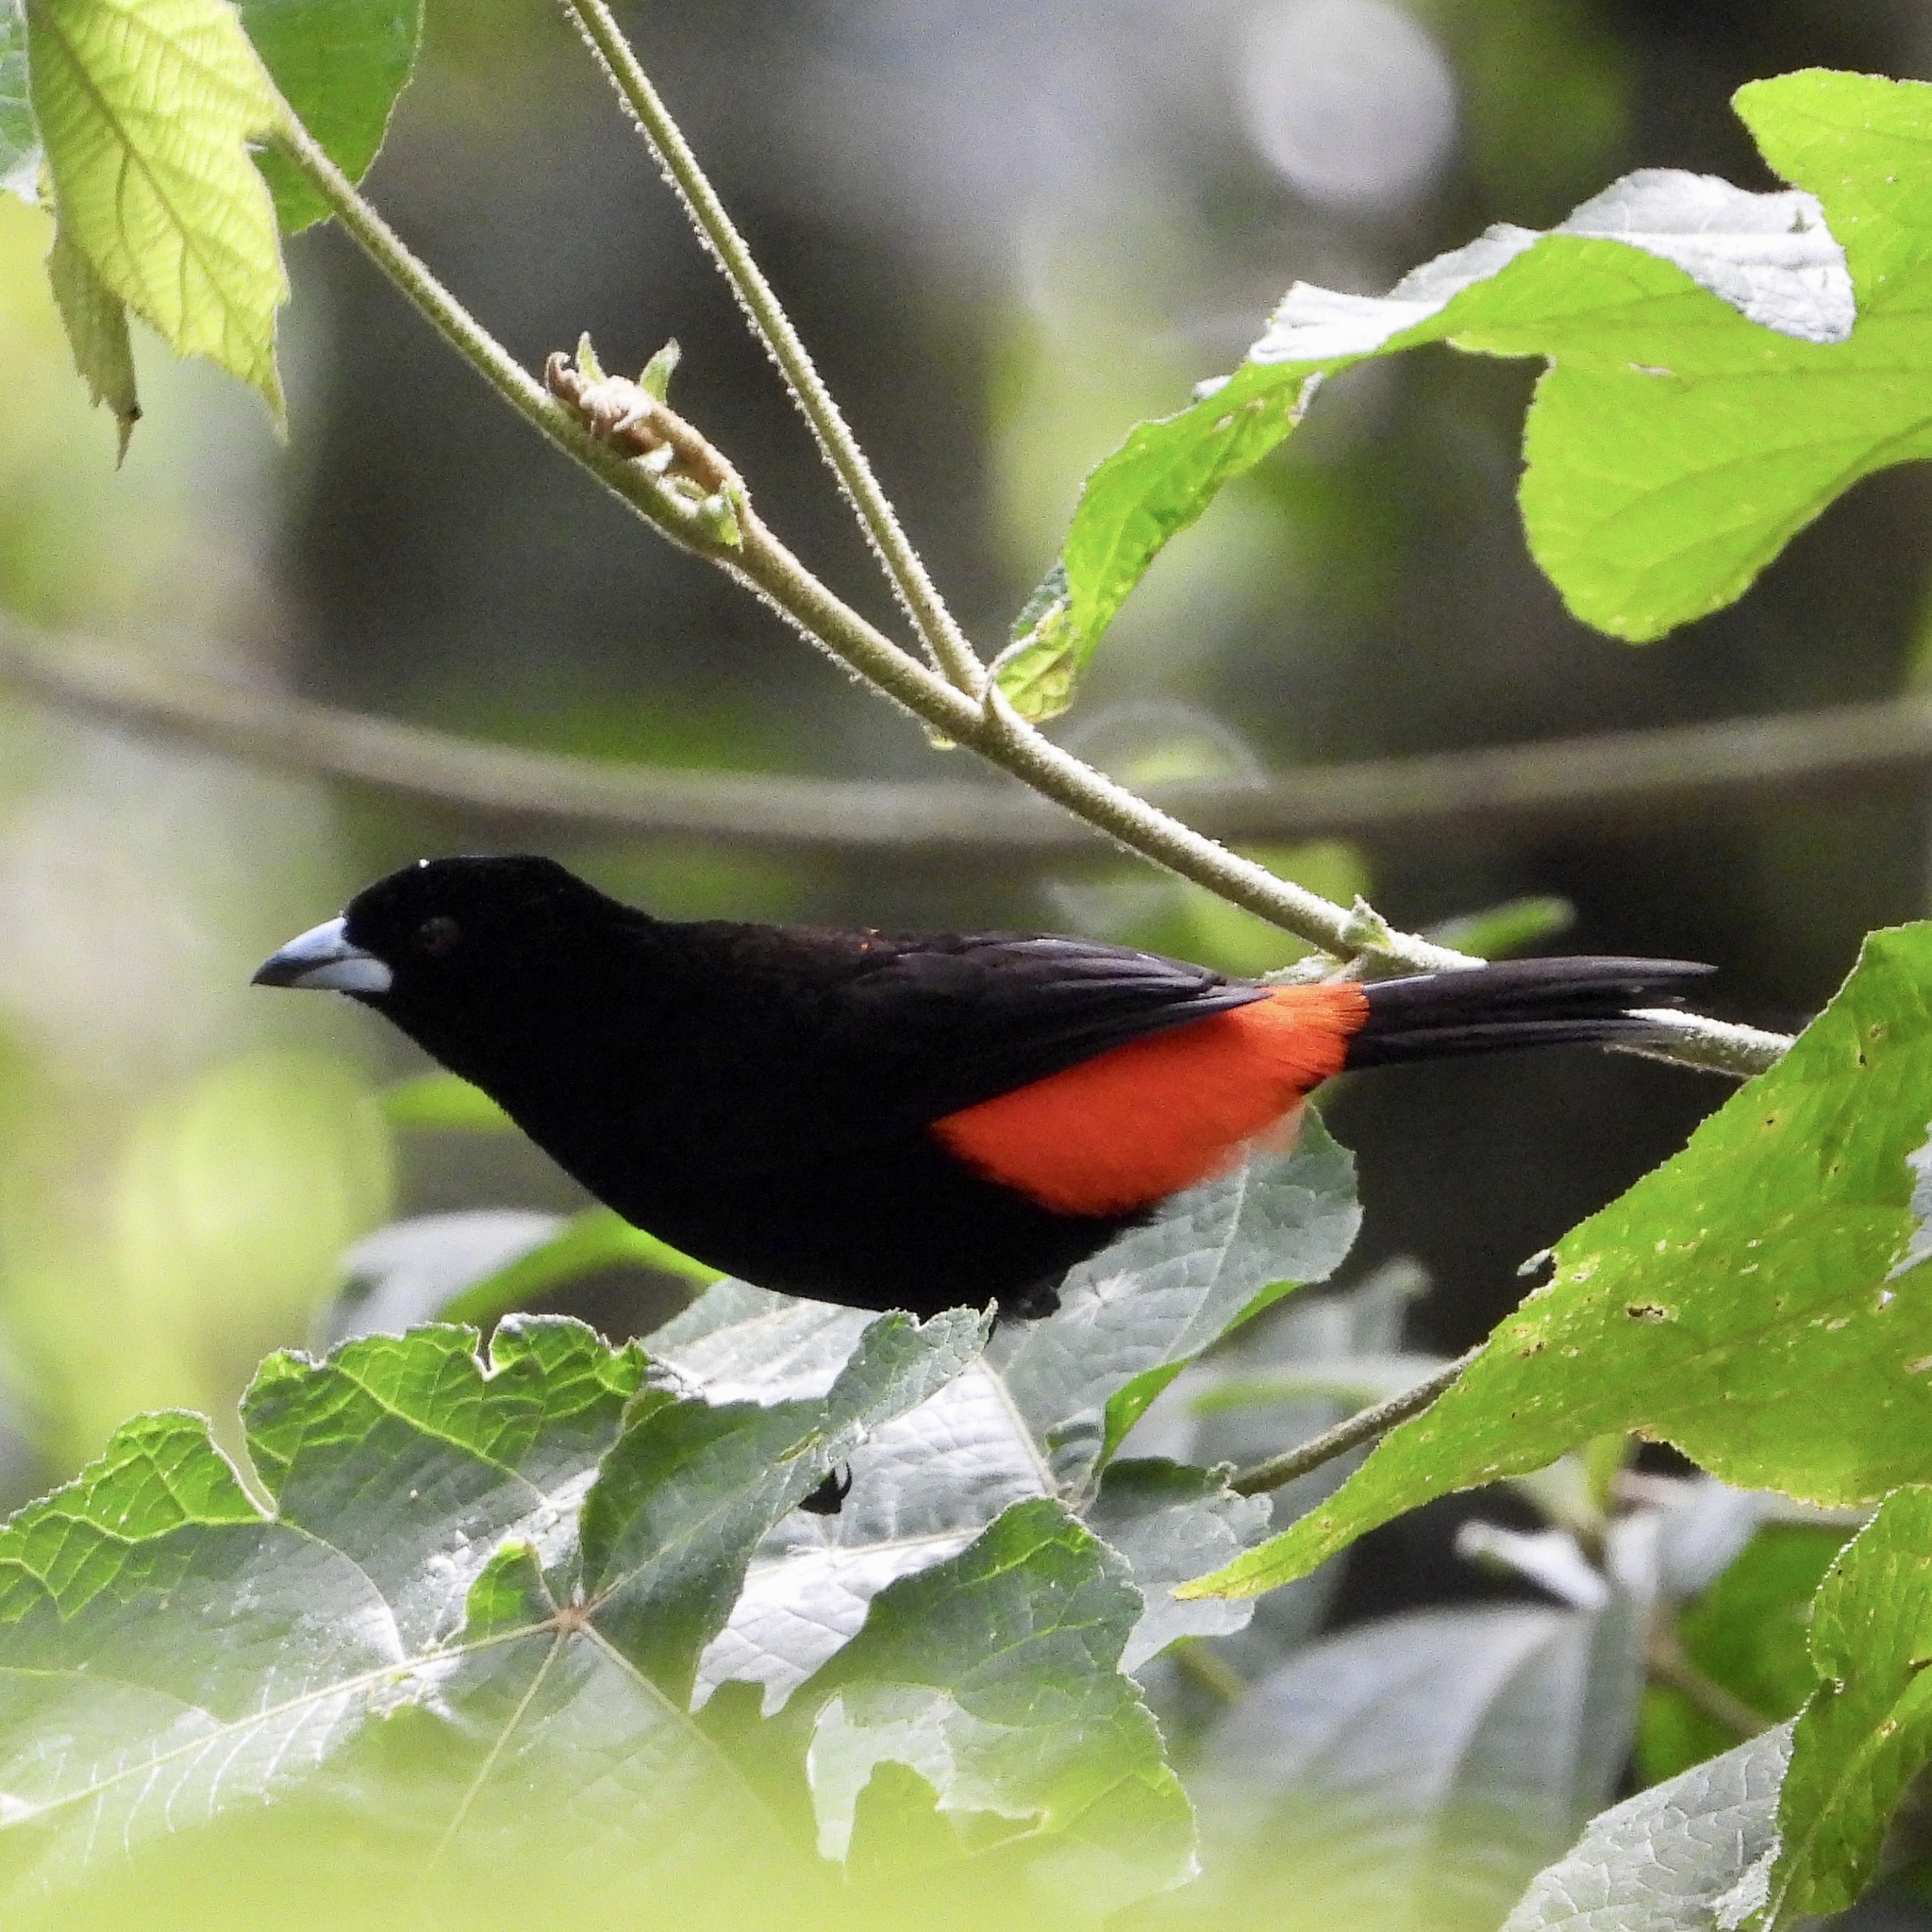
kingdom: Animalia
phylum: Chordata
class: Aves
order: Passeriformes
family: Thraupidae
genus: Ramphocelus
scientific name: Ramphocelus passerinii
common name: Passerini's tanager
